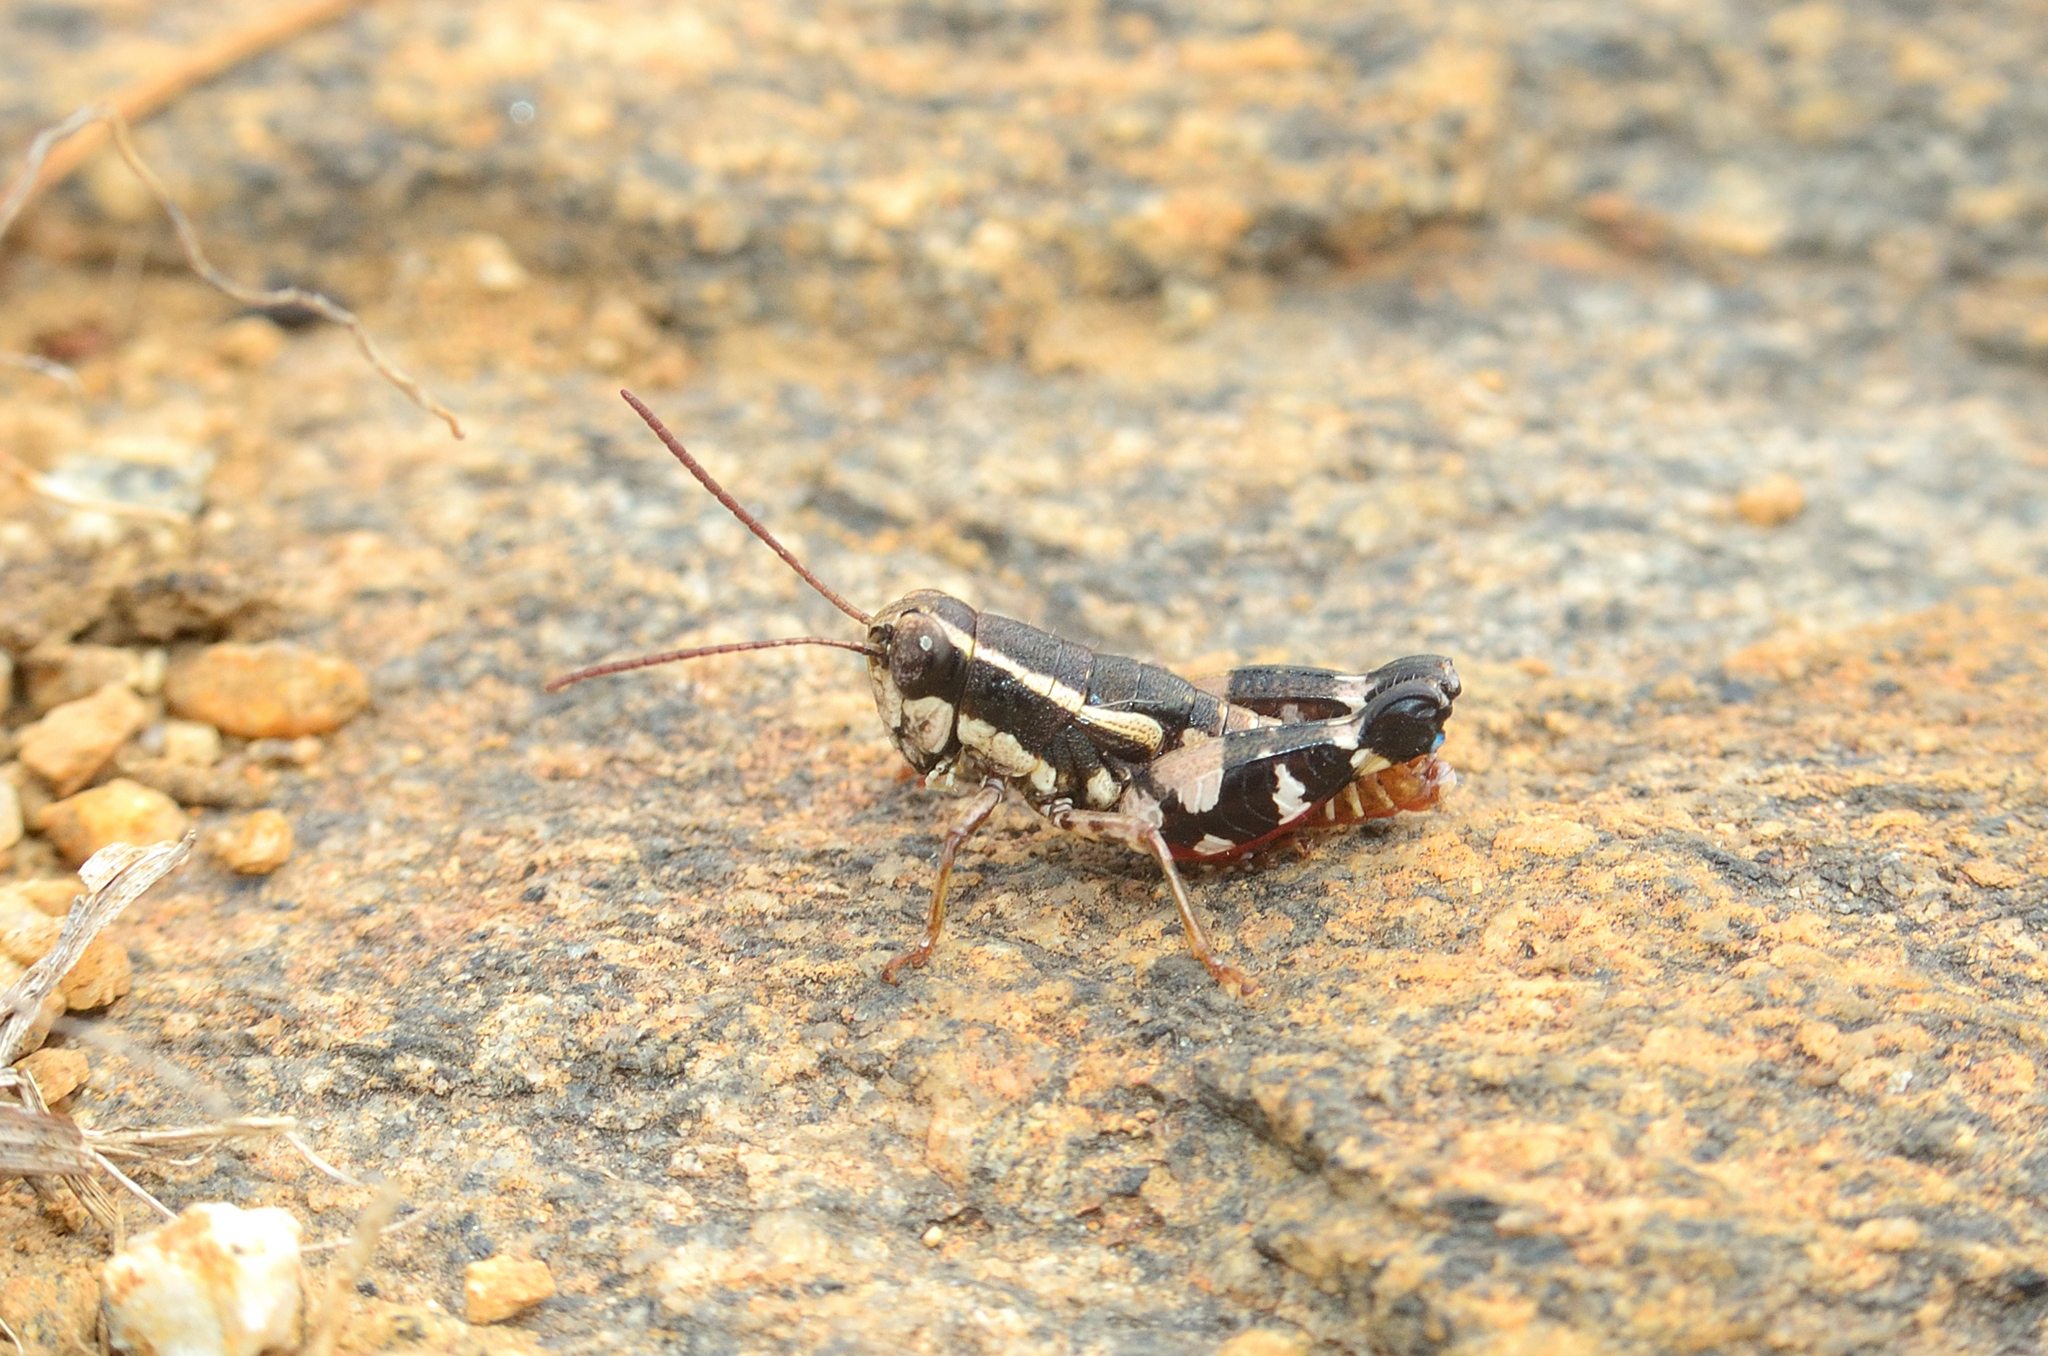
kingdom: Animalia
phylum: Arthropoda
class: Insecta
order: Orthoptera
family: Acrididae
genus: Opharicus
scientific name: Opharicus ballardi
